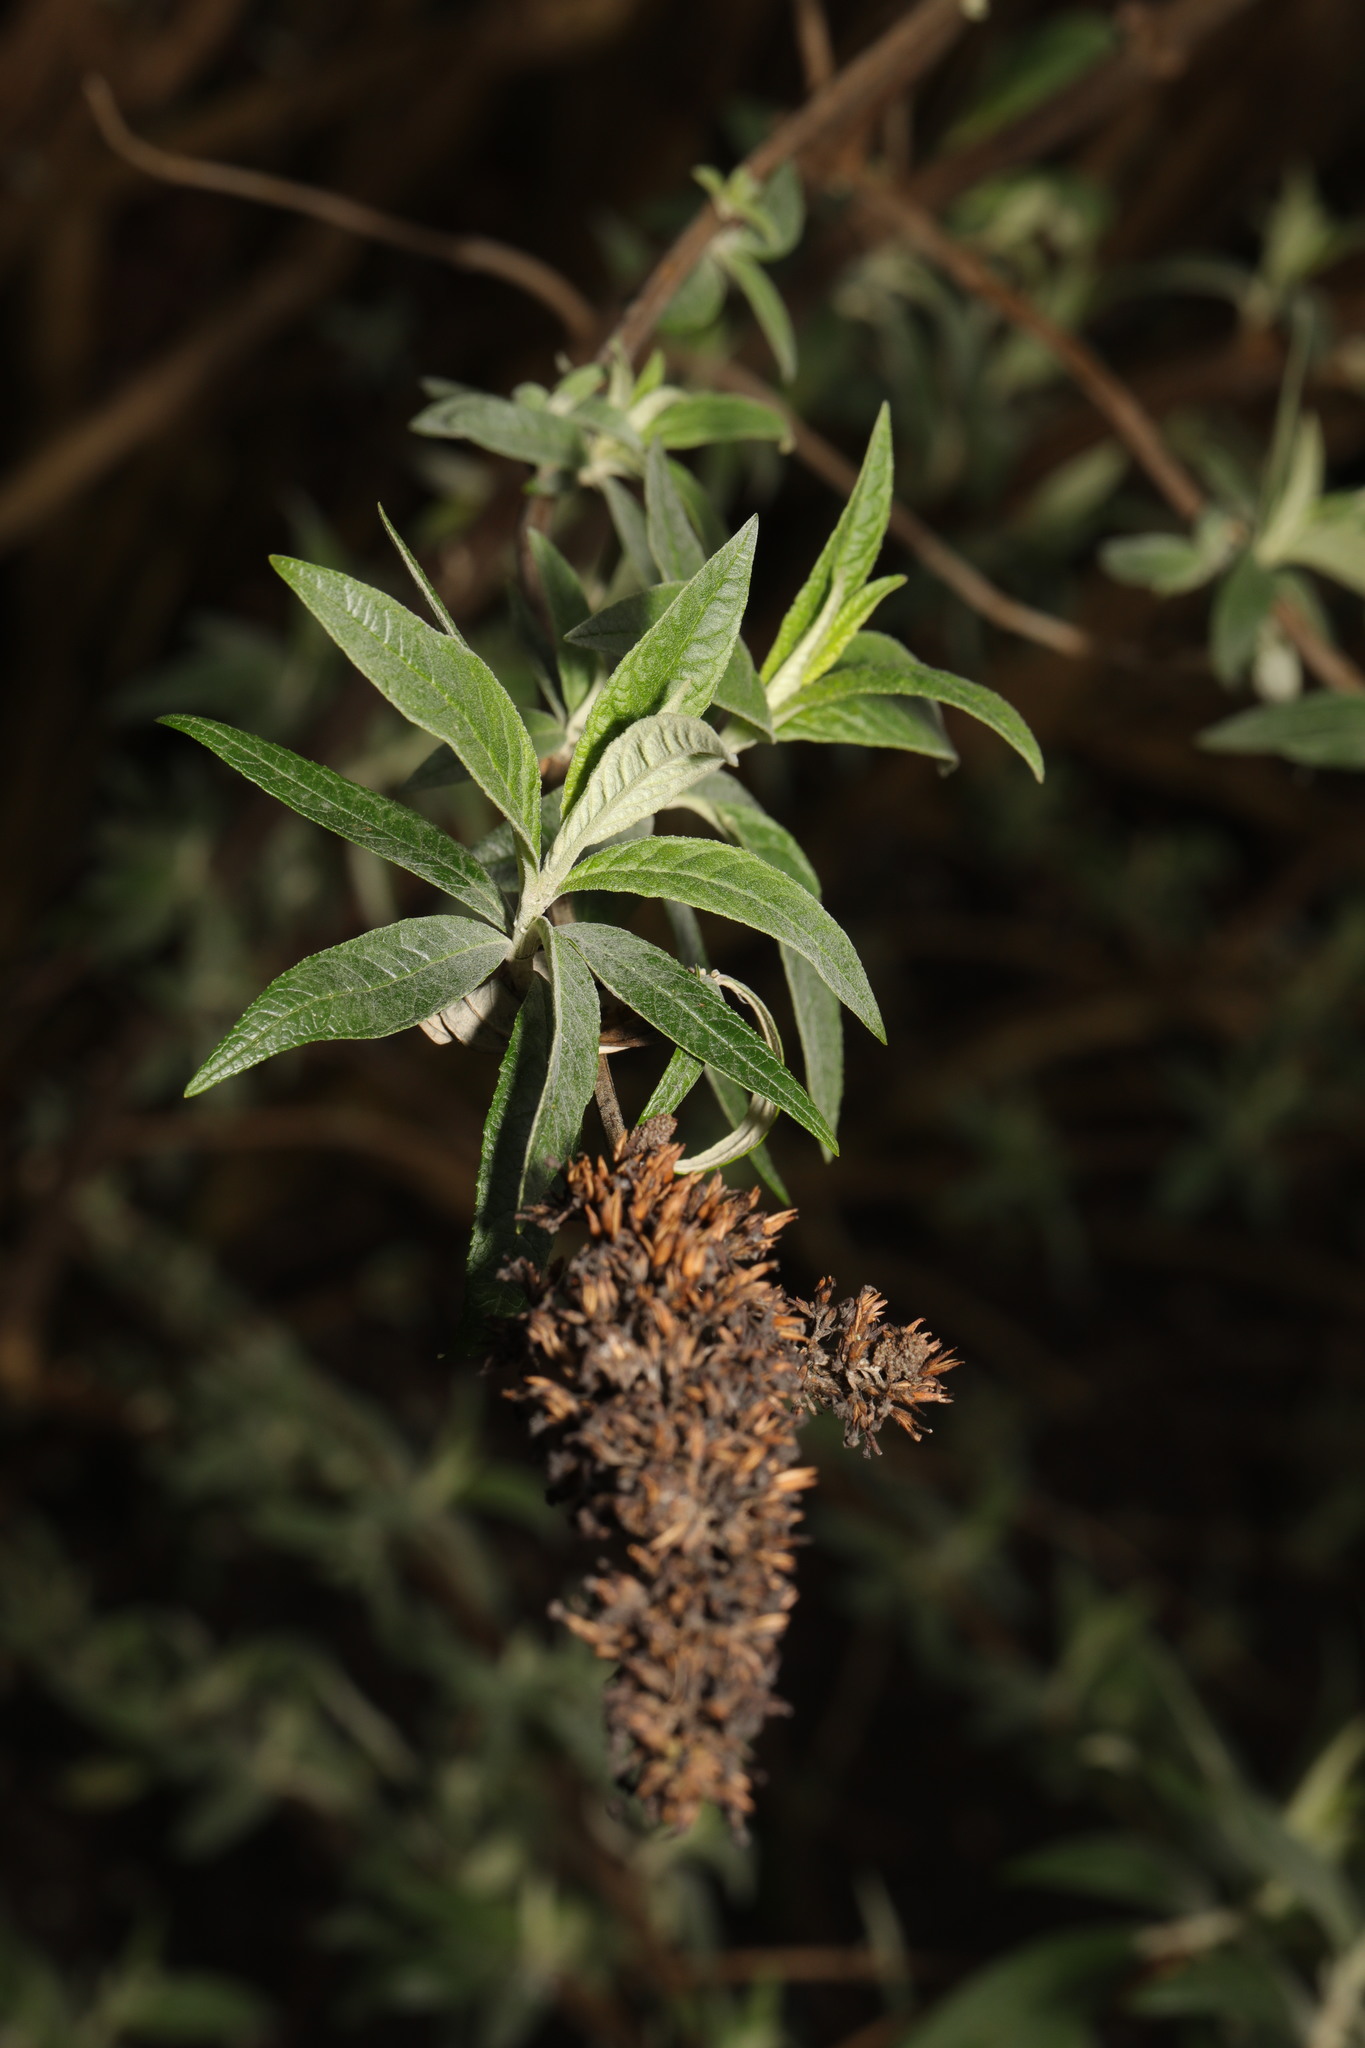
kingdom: Plantae
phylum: Tracheophyta
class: Magnoliopsida
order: Lamiales
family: Scrophulariaceae
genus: Buddleja
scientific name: Buddleja davidii
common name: Butterfly-bush
